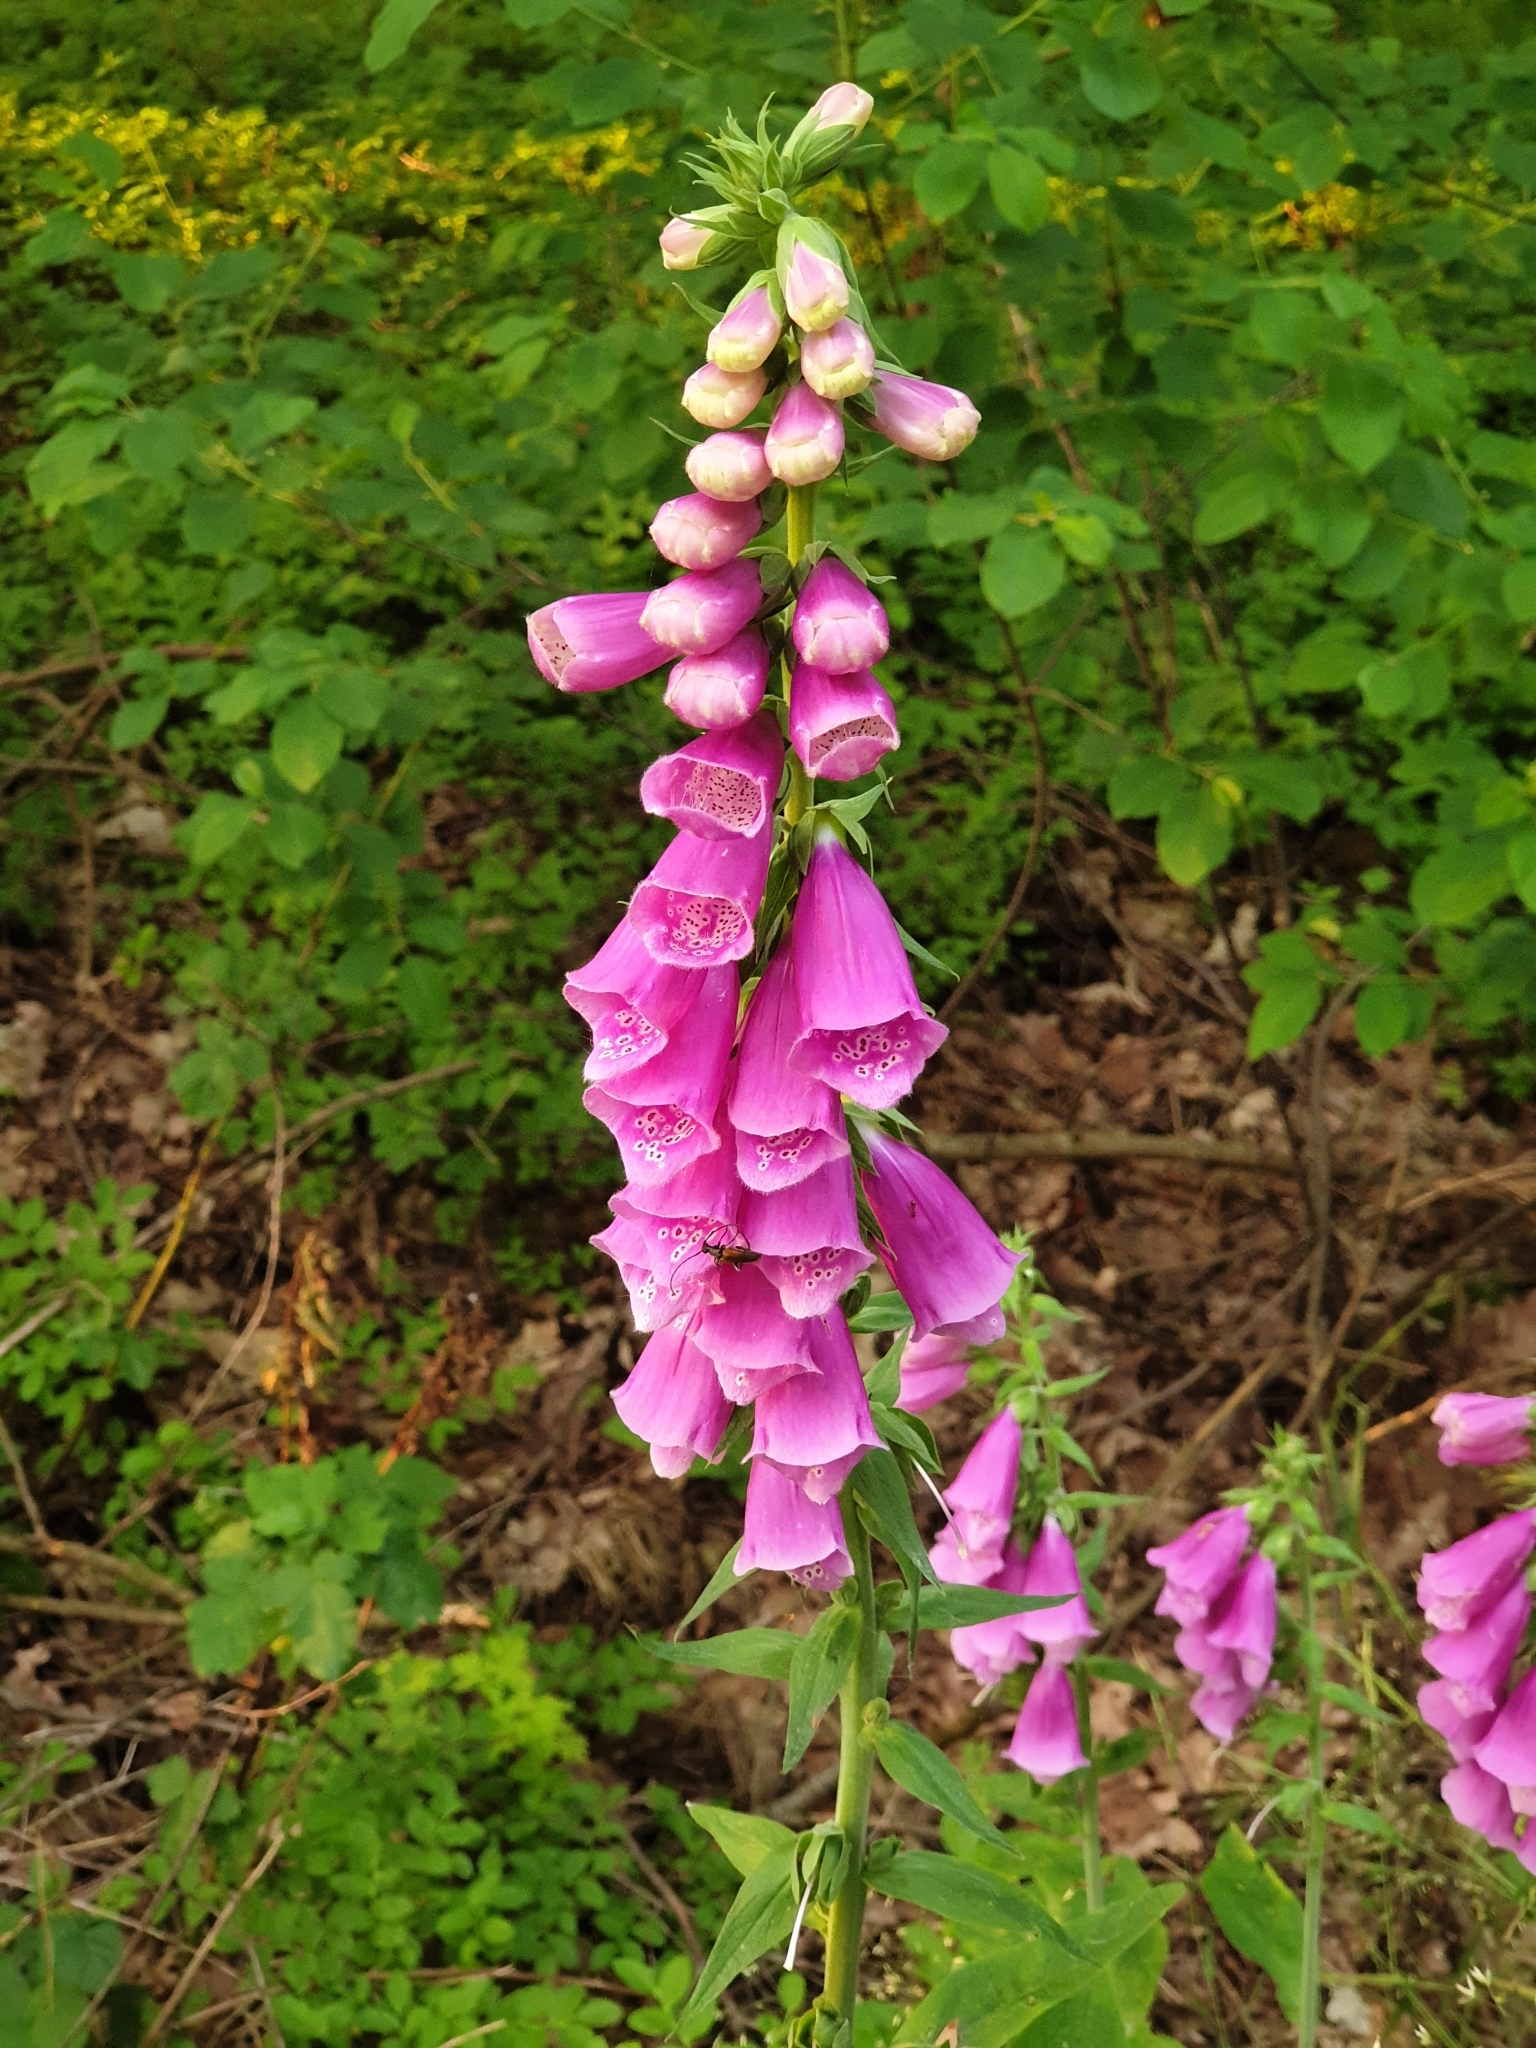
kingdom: Plantae
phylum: Tracheophyta
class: Magnoliopsida
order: Lamiales
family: Plantaginaceae
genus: Digitalis
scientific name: Digitalis purpurea
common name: Foxglove
